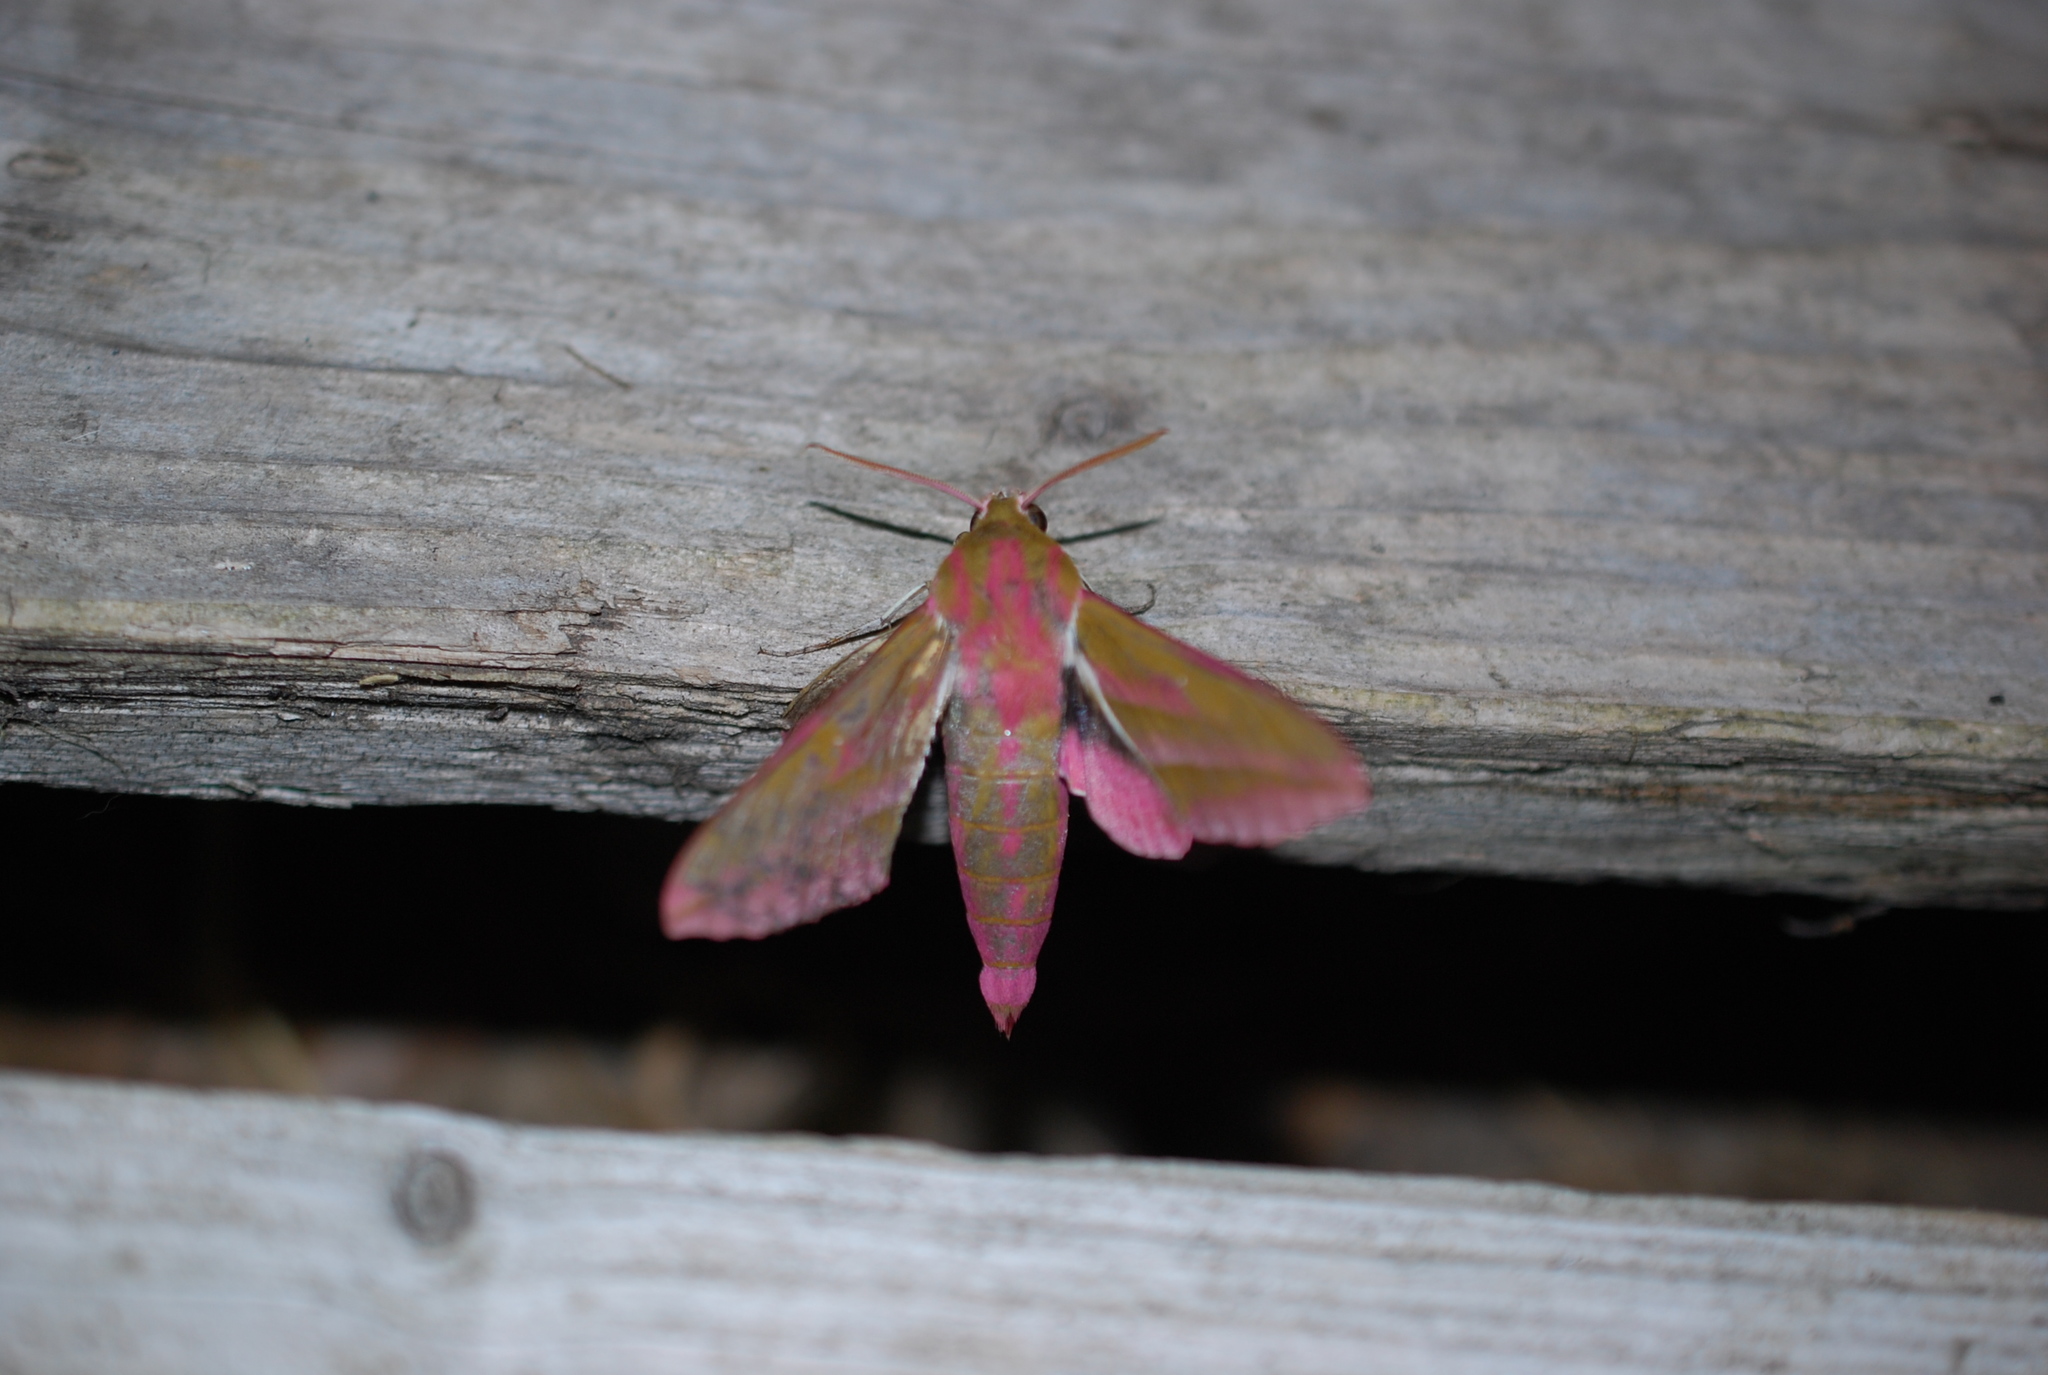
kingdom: Animalia
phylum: Arthropoda
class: Insecta
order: Lepidoptera
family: Sphingidae
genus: Deilephila
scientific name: Deilephila elpenor
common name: Elephant hawk-moth
